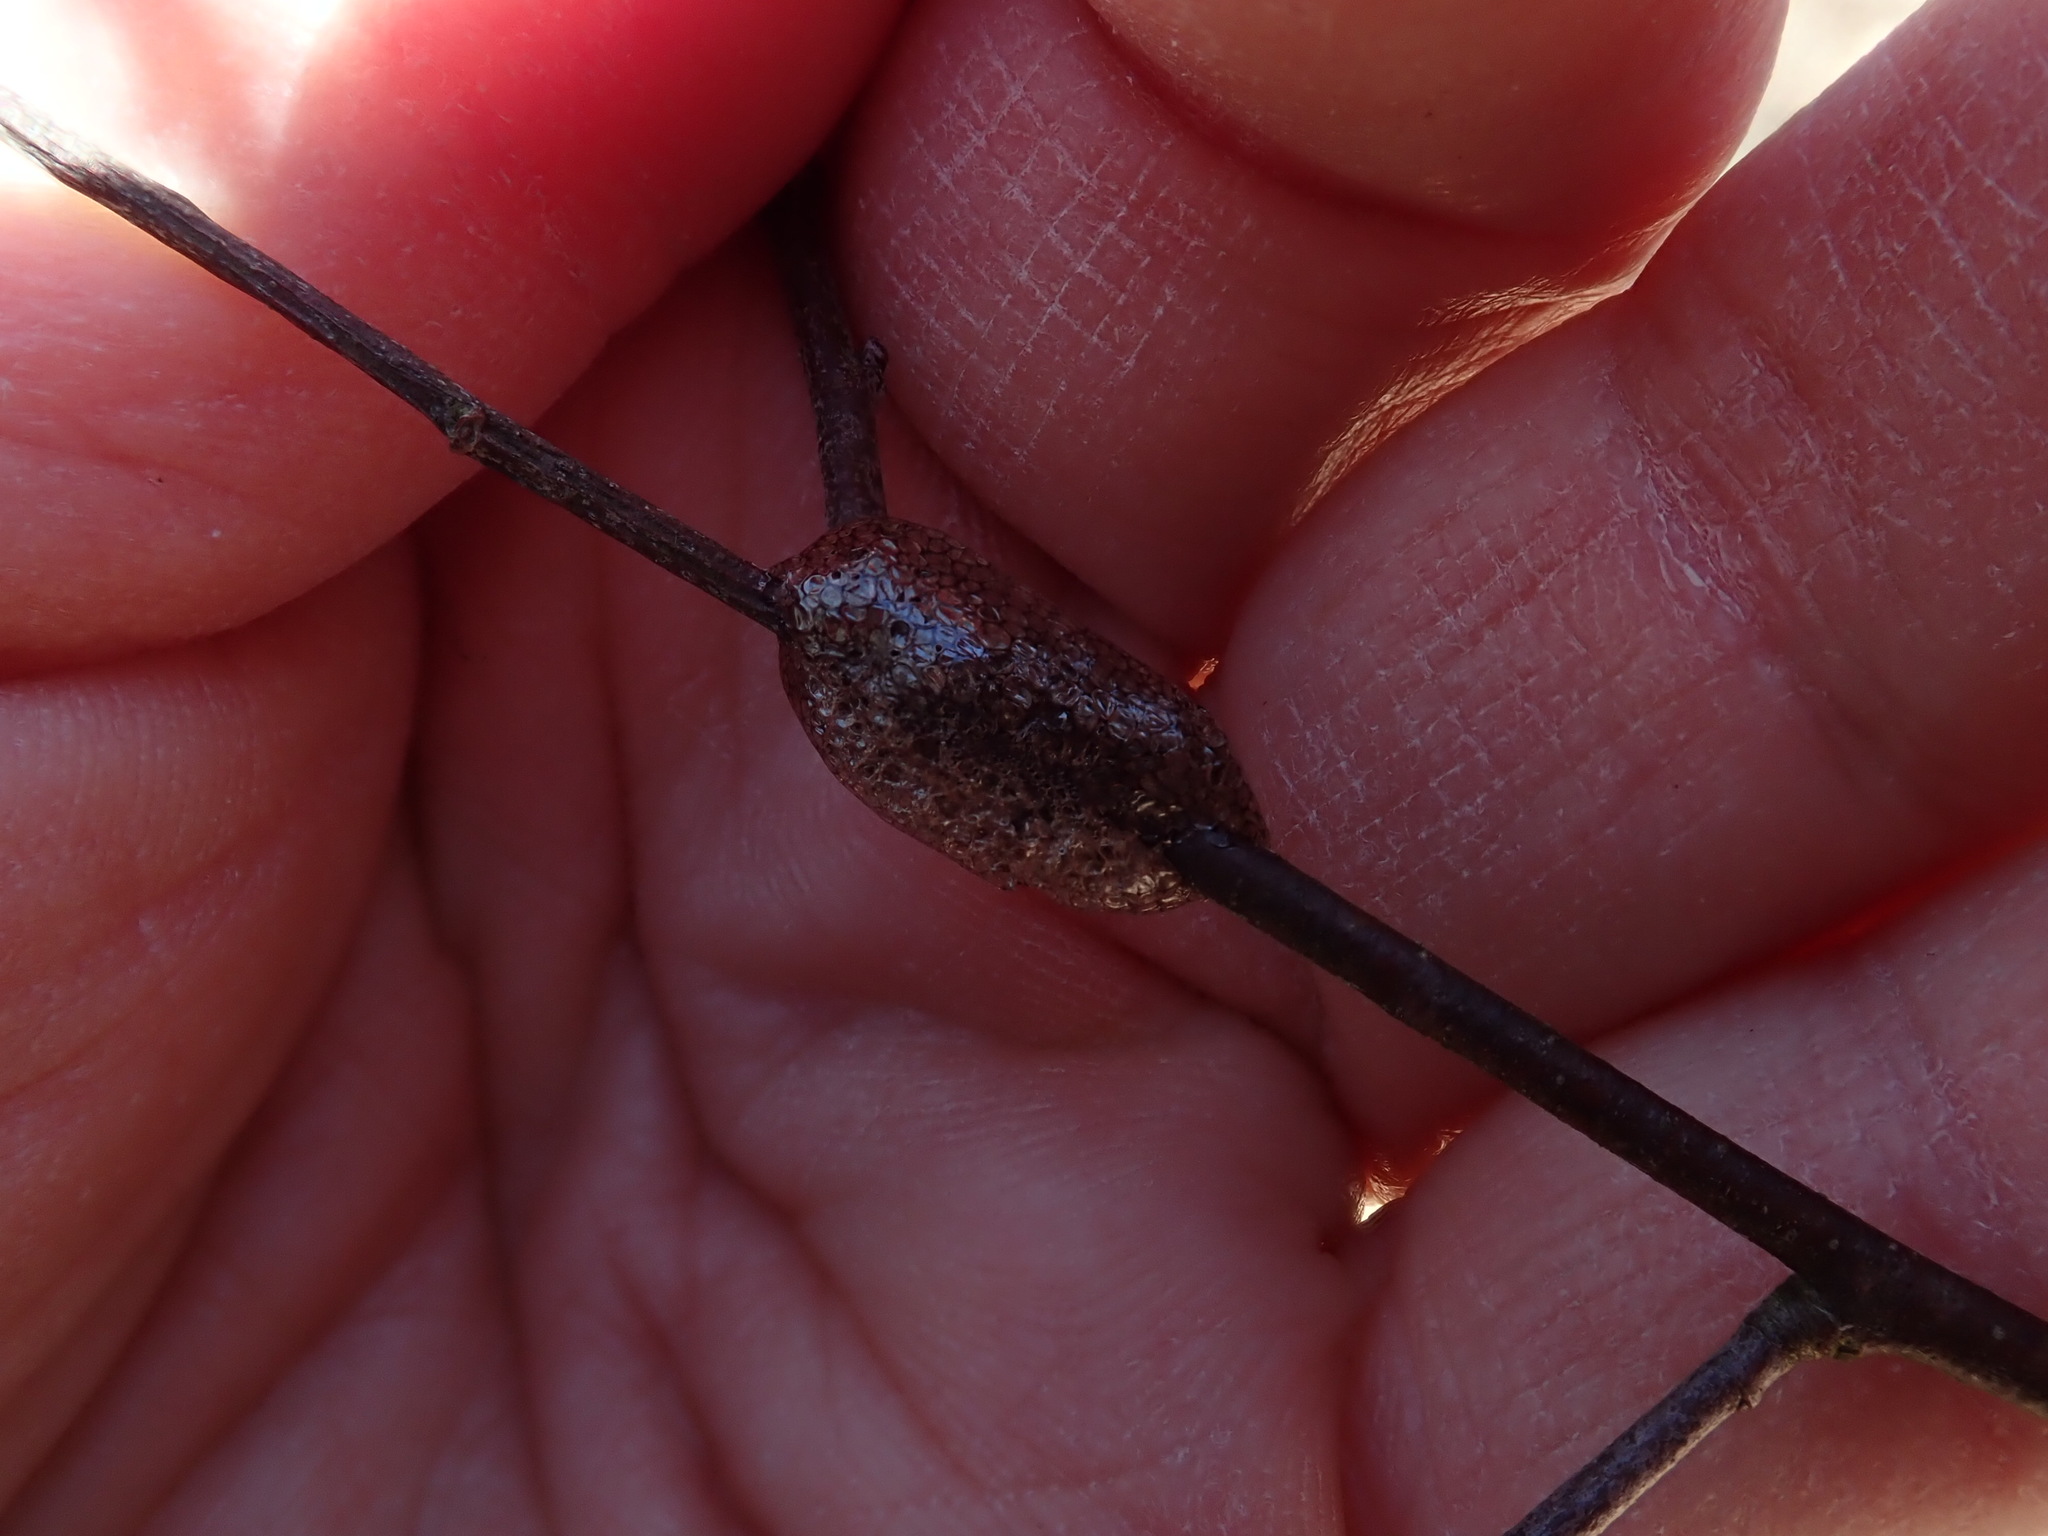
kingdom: Animalia
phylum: Arthropoda
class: Insecta
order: Lepidoptera
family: Lasiocampidae
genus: Malacosoma
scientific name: Malacosoma americana
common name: Eastern tent caterpillar moth
